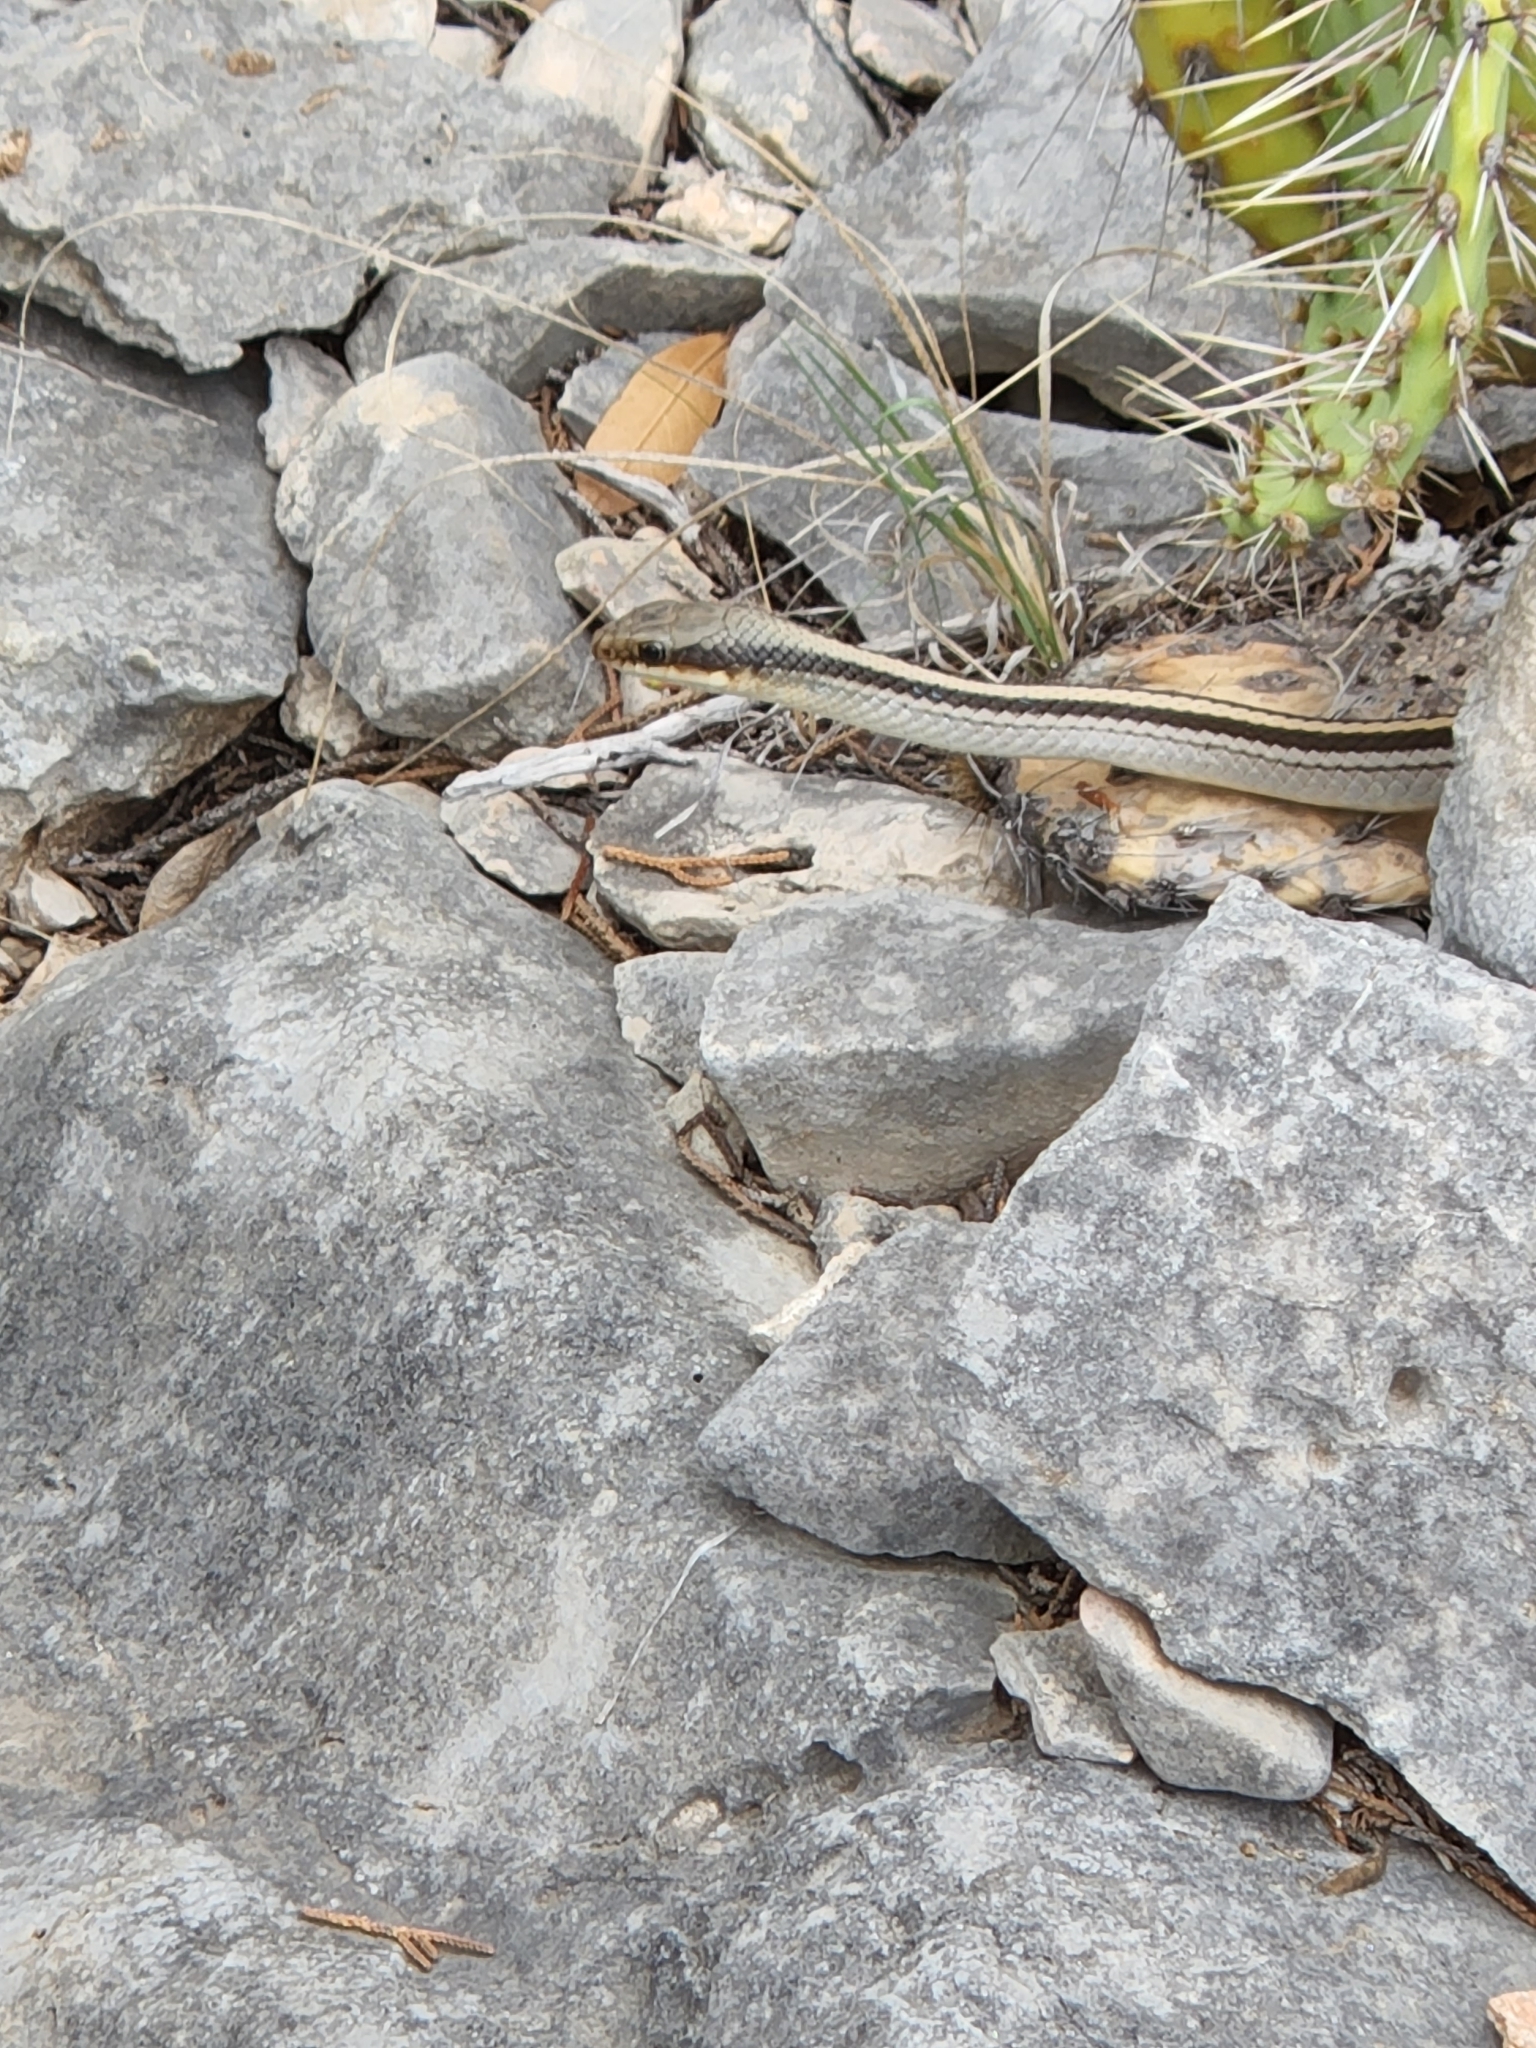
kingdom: Animalia
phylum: Chordata
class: Squamata
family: Colubridae
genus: Salvadora
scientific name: Salvadora lineata
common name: Texas patchnose snake
